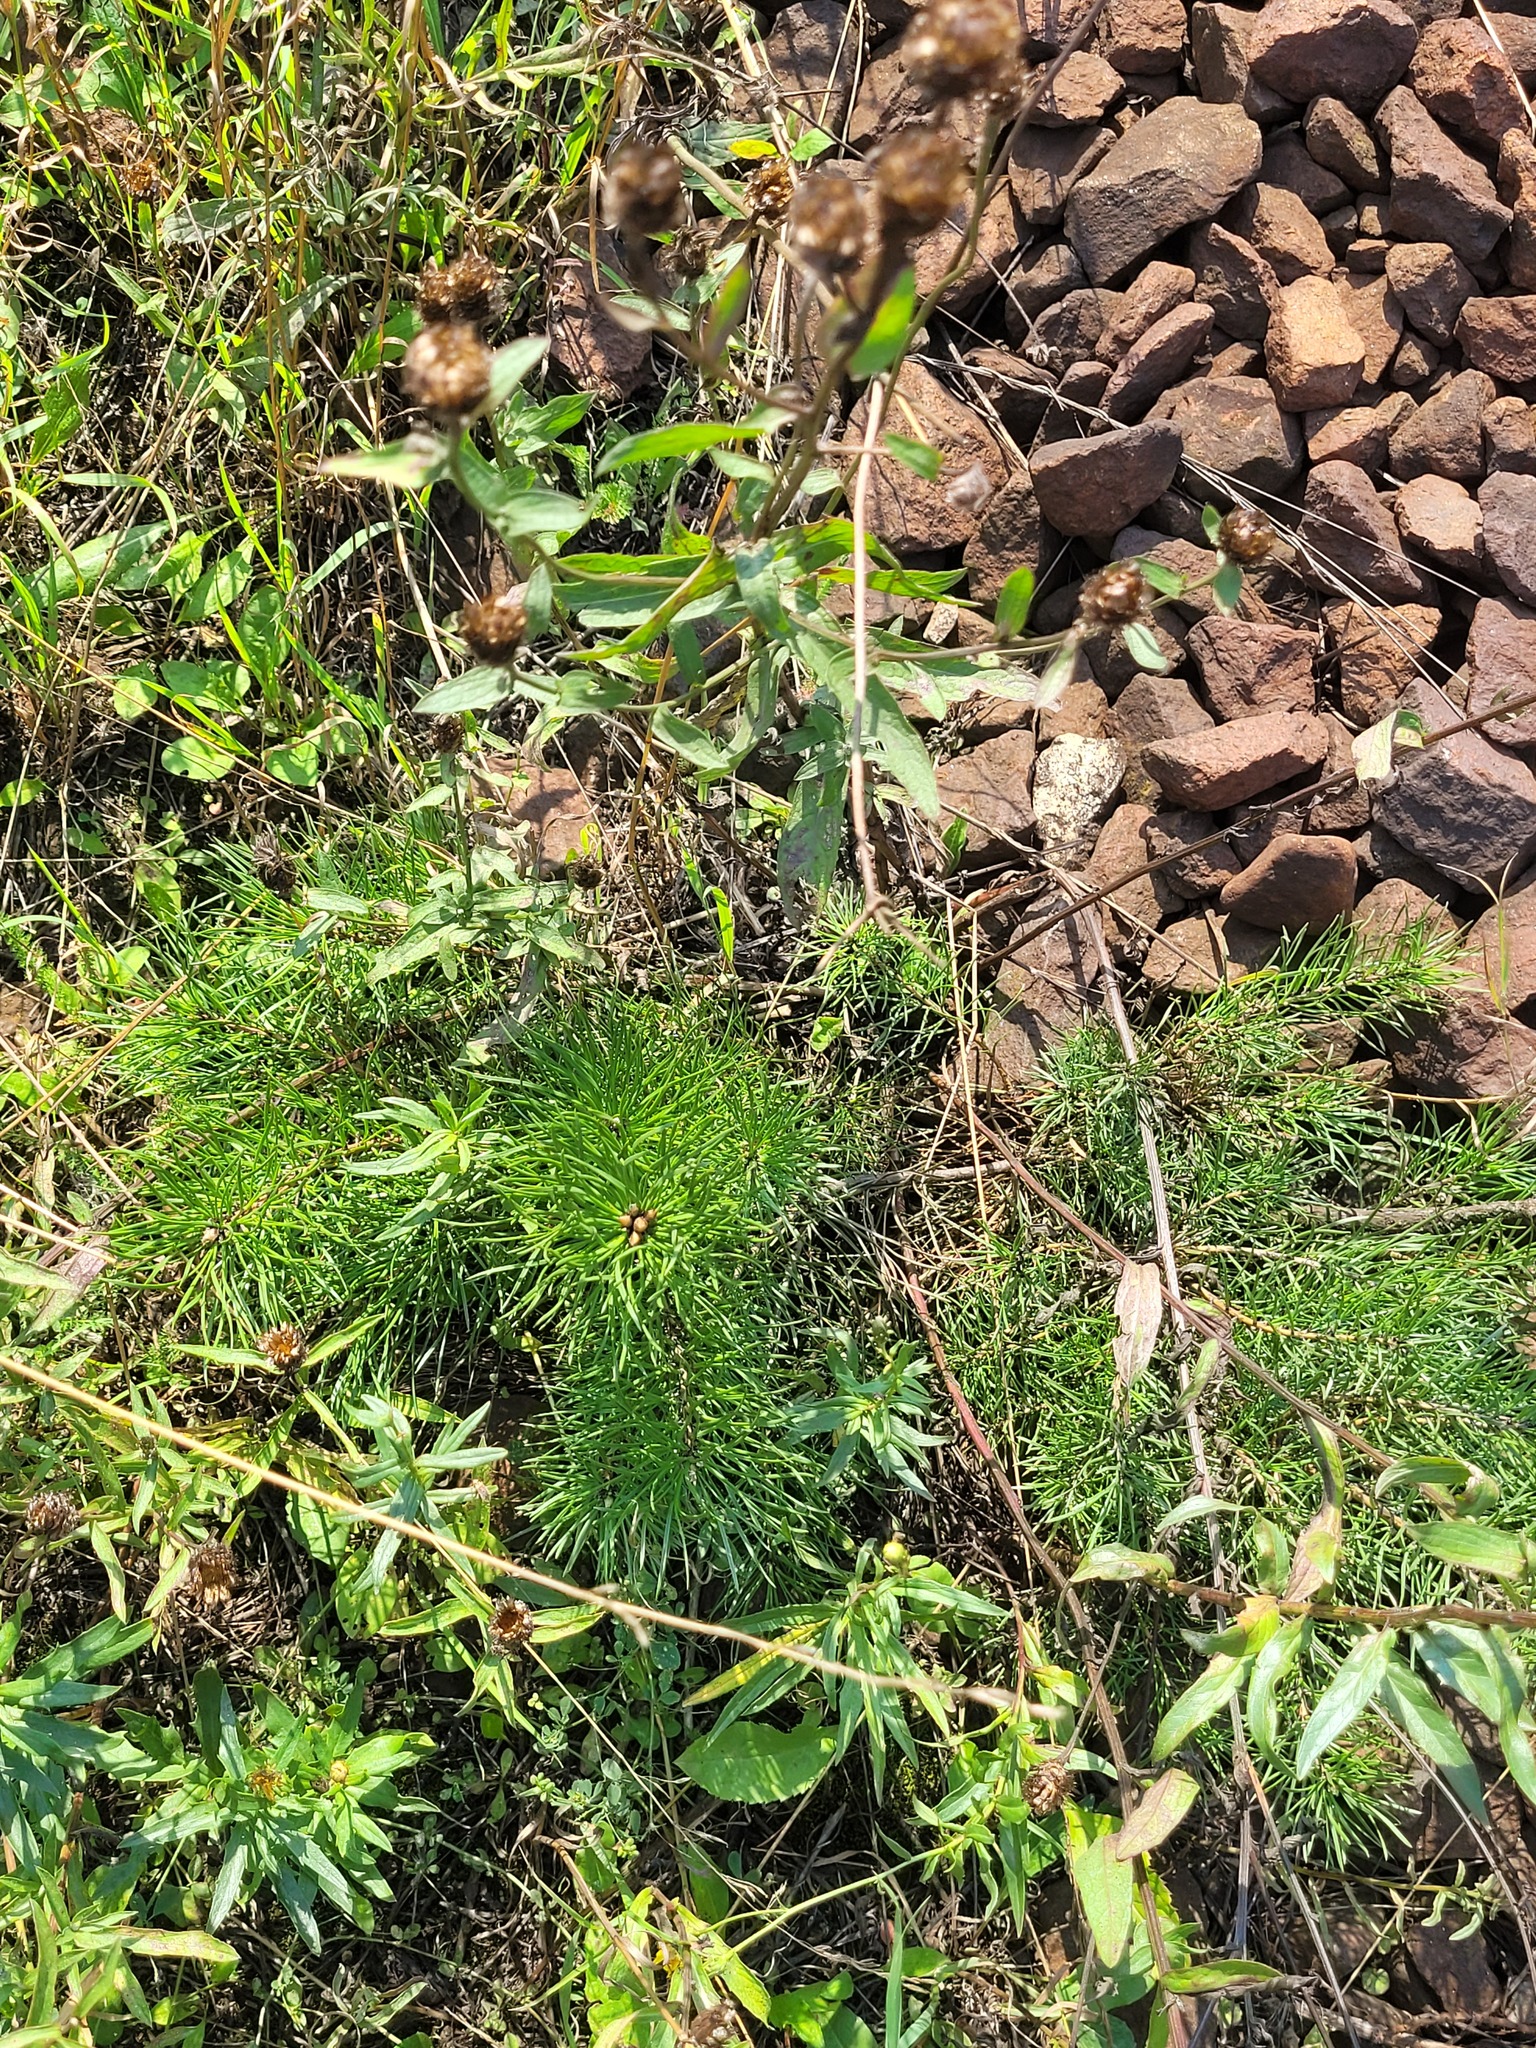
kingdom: Plantae
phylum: Tracheophyta
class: Pinopsida
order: Pinales
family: Pinaceae
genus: Pinus
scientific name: Pinus sylvestris
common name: Scots pine
